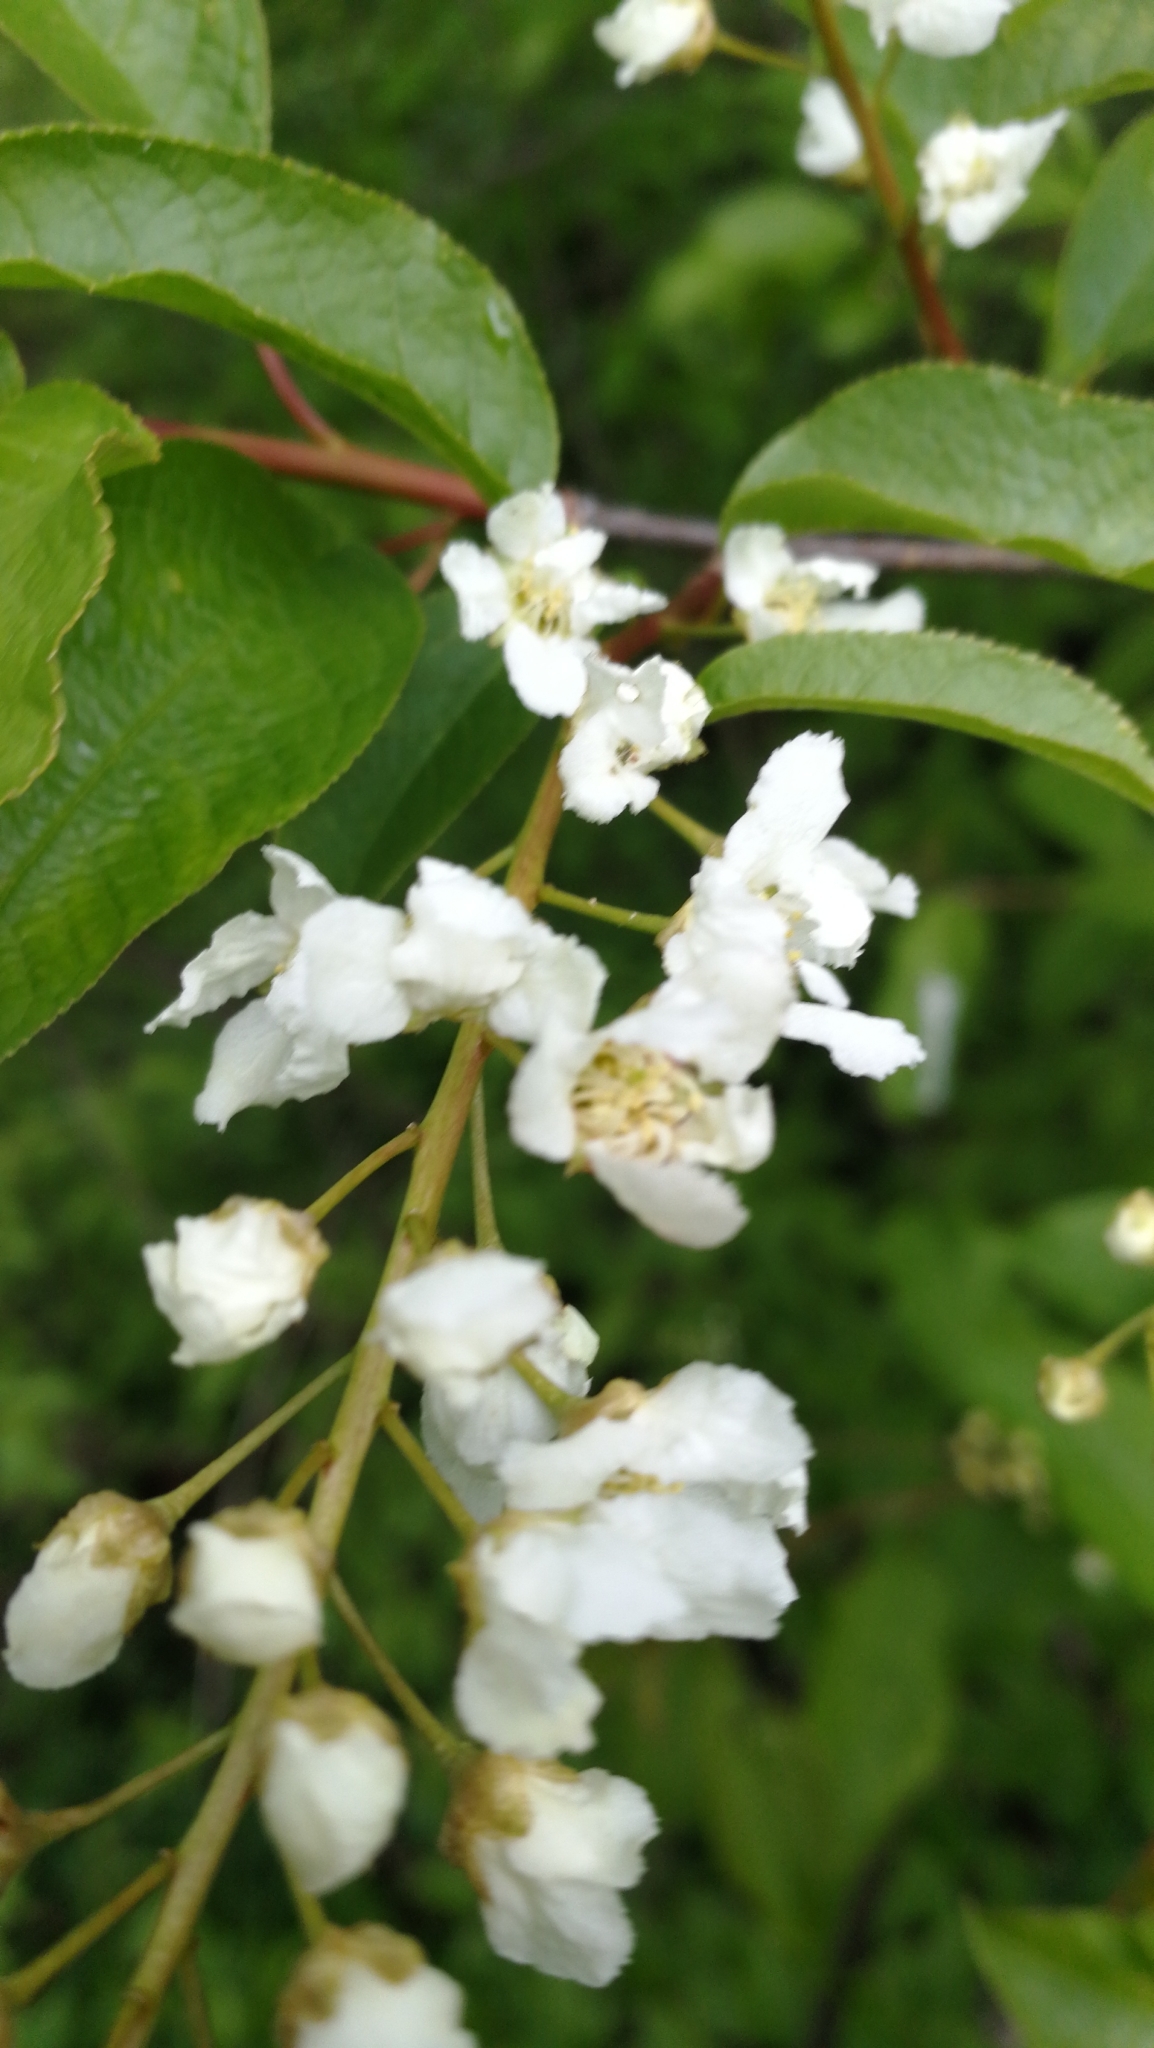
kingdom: Plantae
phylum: Tracheophyta
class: Magnoliopsida
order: Rosales
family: Rosaceae
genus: Prunus
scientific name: Prunus padus
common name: Bird cherry
